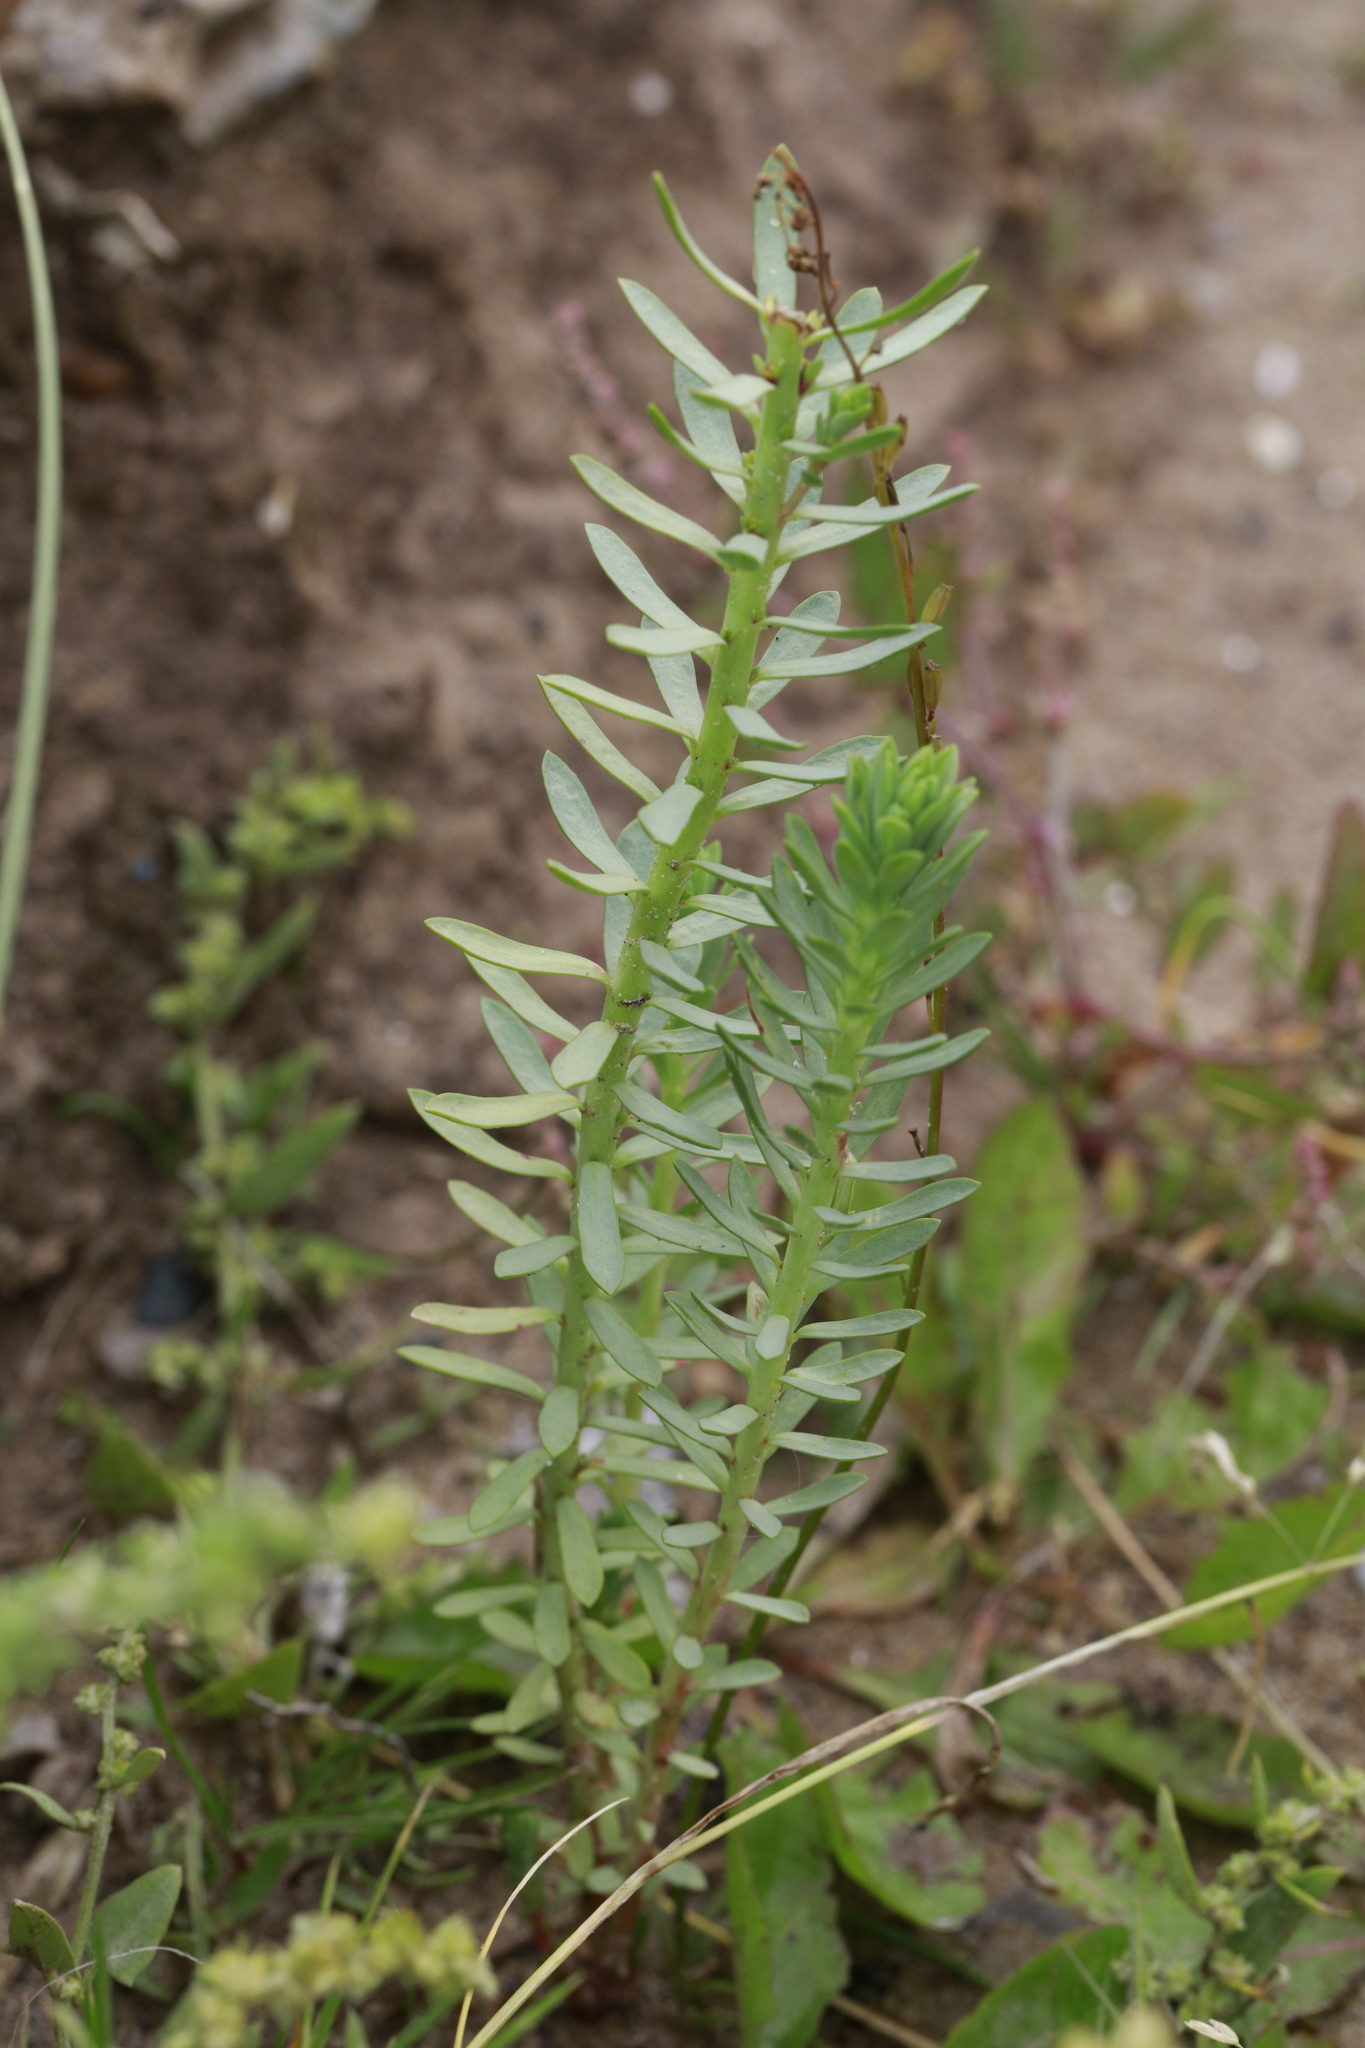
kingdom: Plantae
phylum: Tracheophyta
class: Magnoliopsida
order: Malpighiales
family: Euphorbiaceae
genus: Euphorbia
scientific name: Euphorbia paralias
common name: Sea spurge
